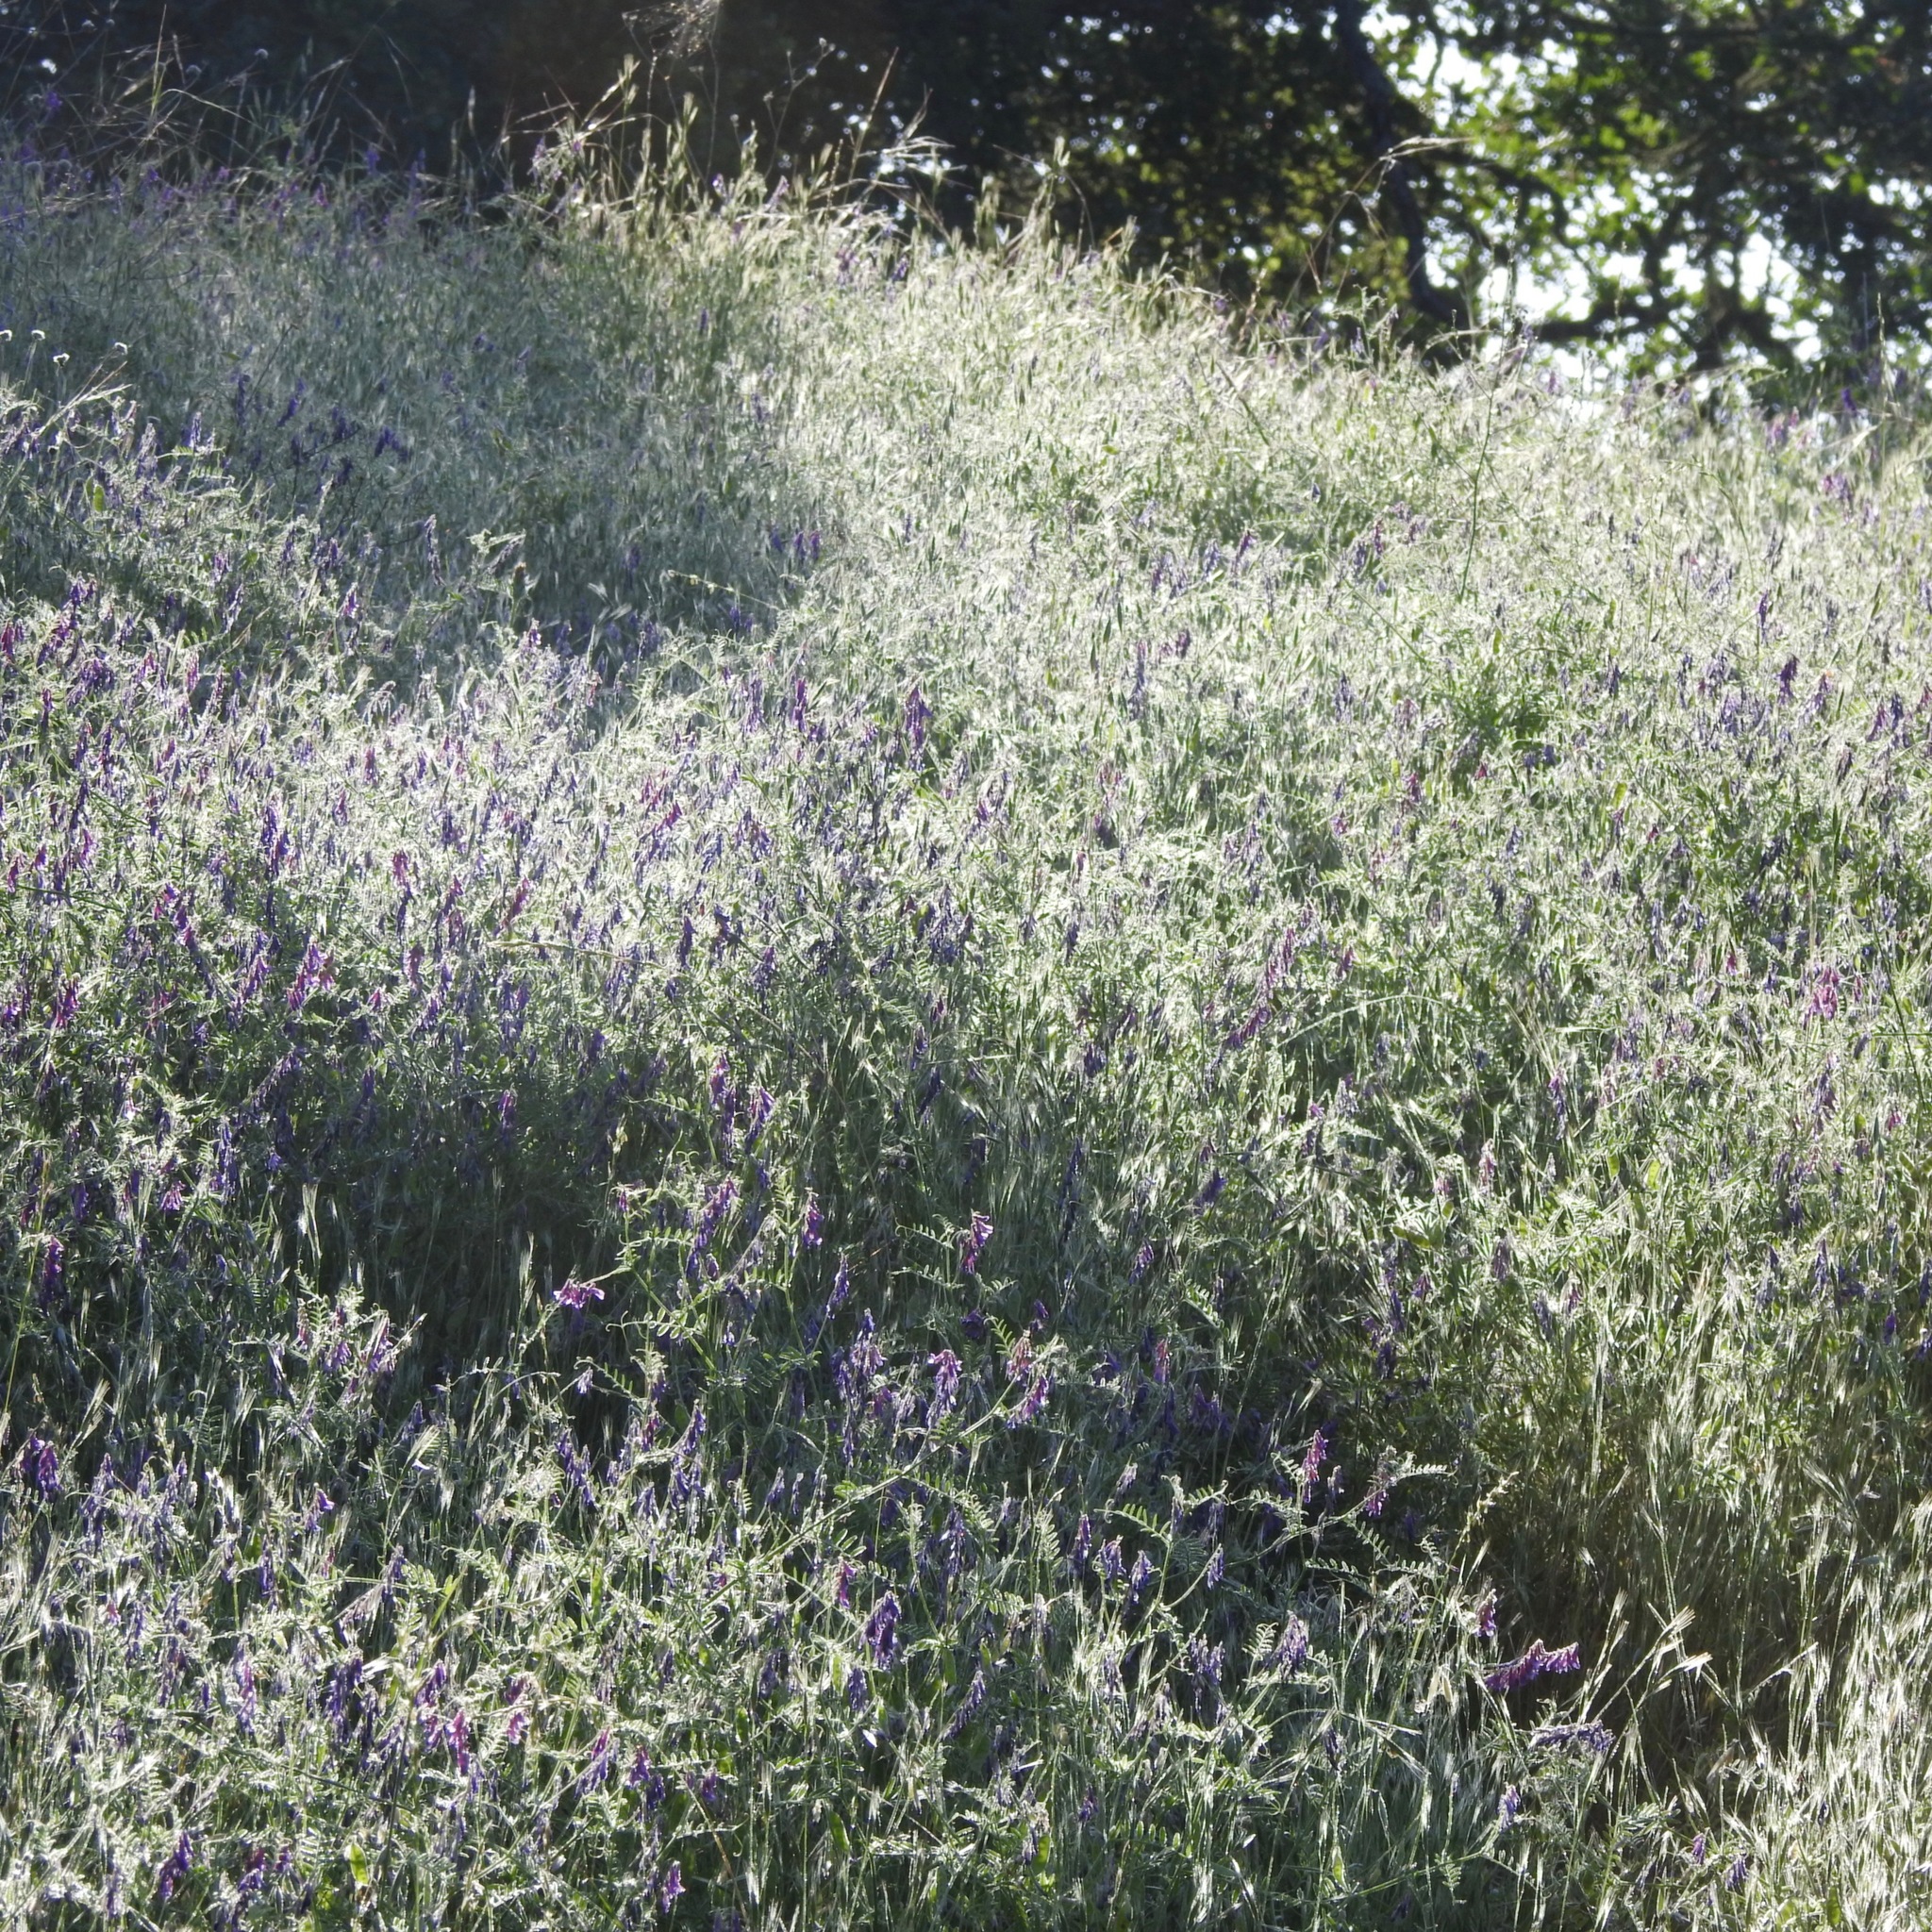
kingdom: Plantae
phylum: Tracheophyta
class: Magnoliopsida
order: Fabales
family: Fabaceae
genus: Vicia
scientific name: Vicia villosa
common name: Fodder vetch
